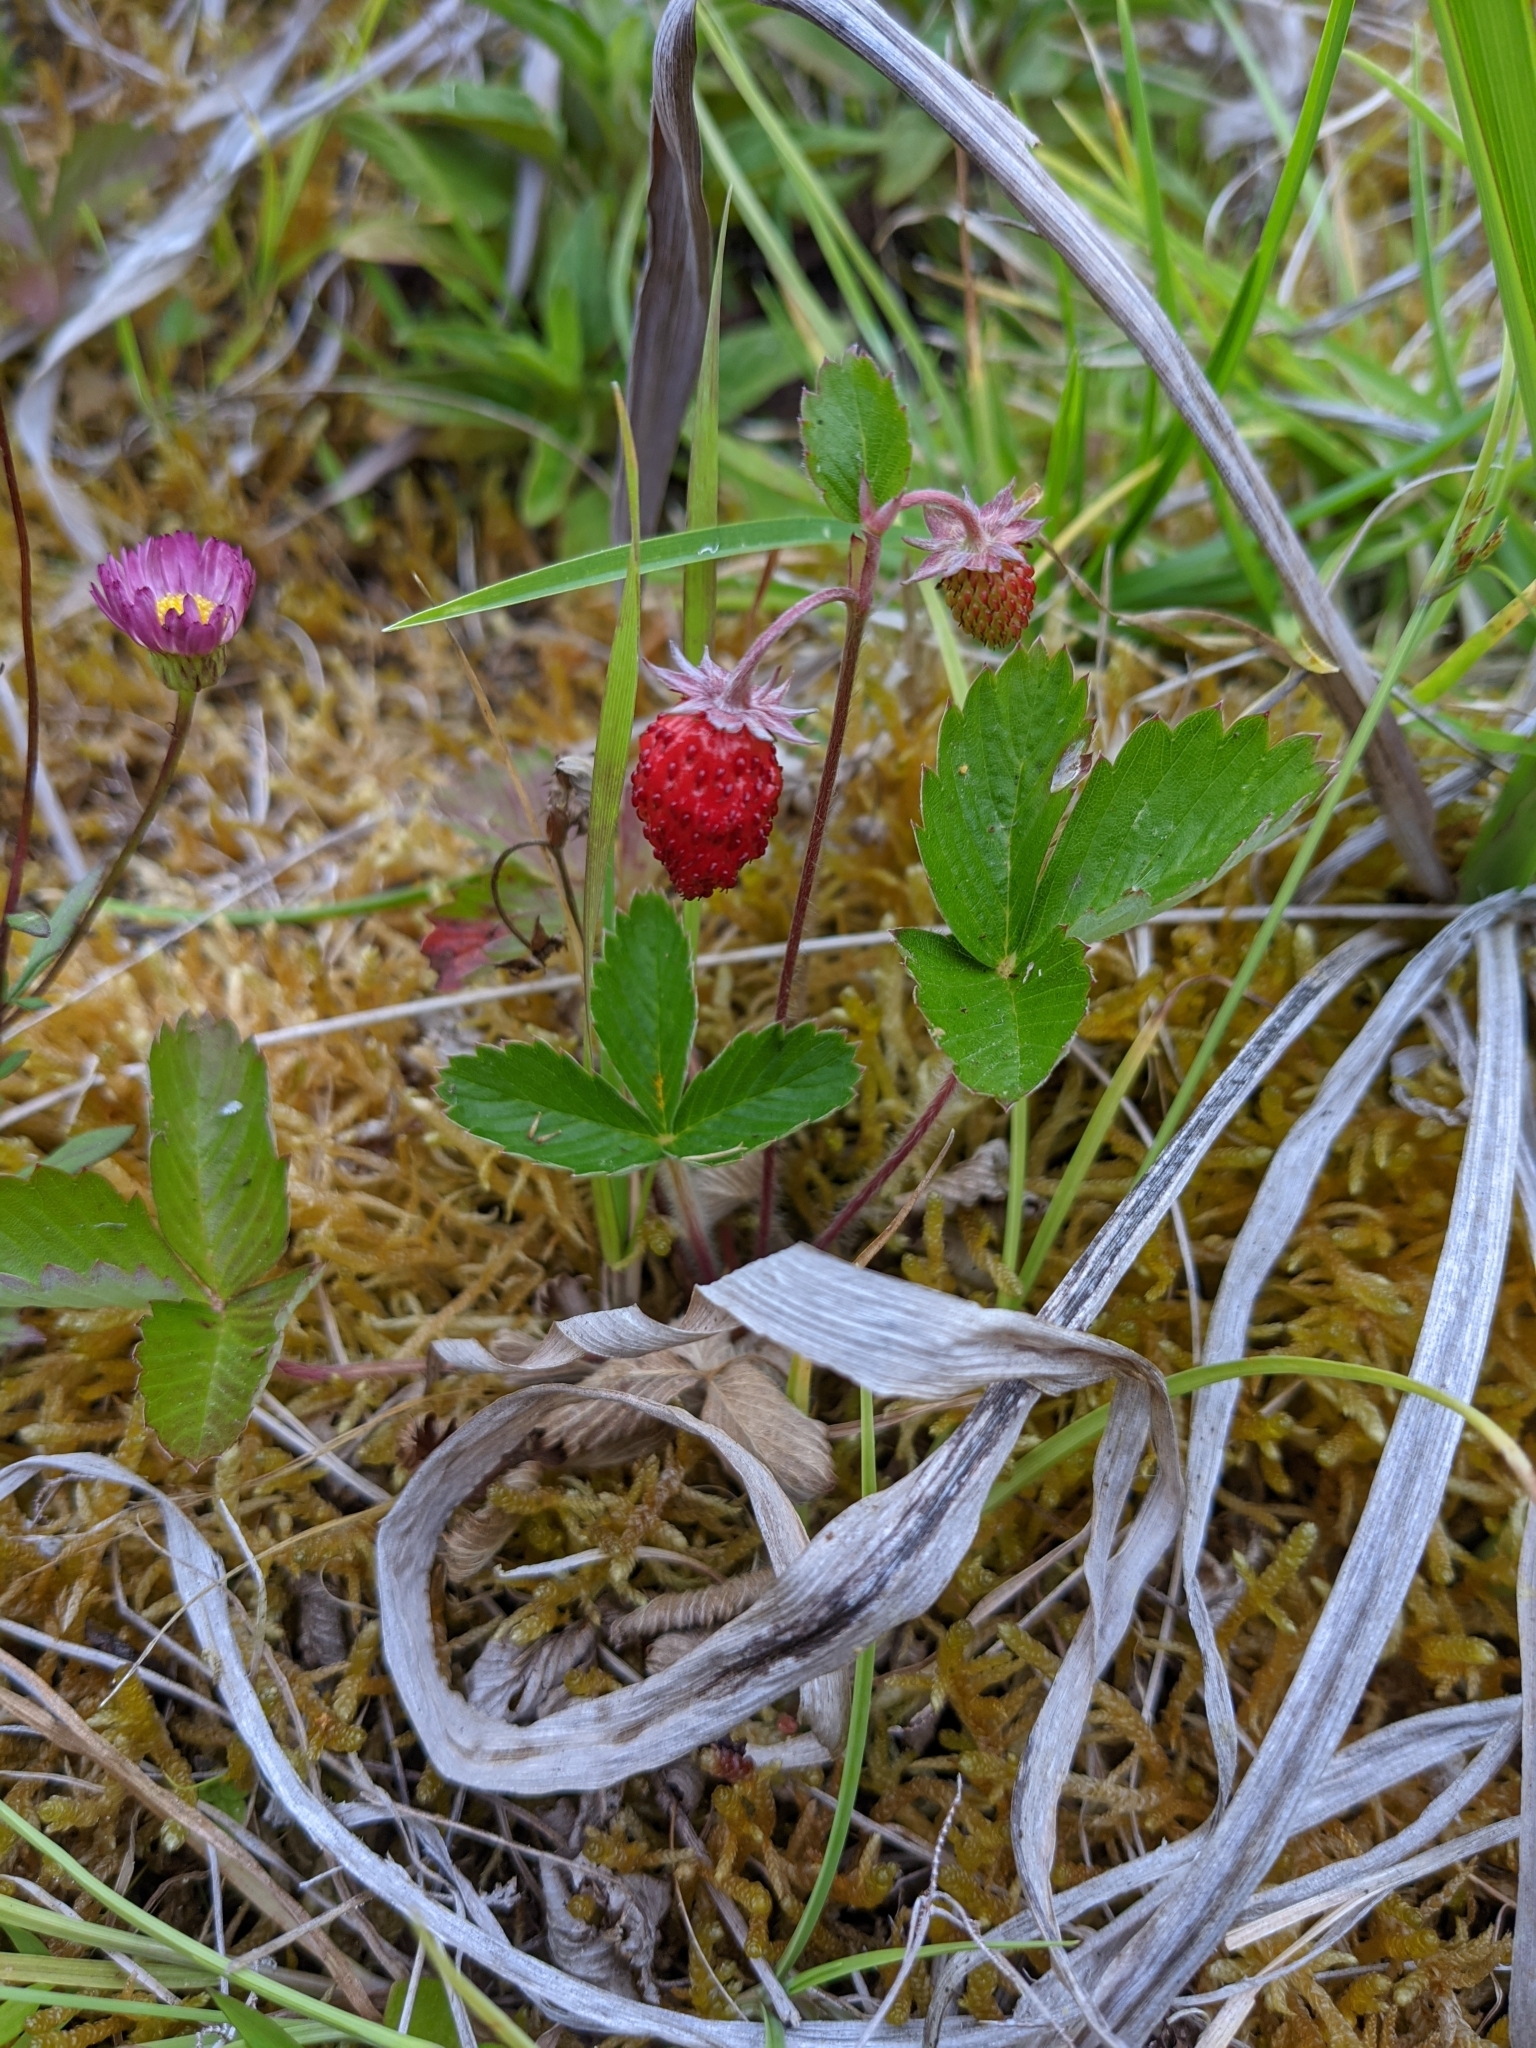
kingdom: Plantae
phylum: Tracheophyta
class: Magnoliopsida
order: Rosales
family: Rosaceae
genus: Fragaria
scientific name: Fragaria vesca
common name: Wild strawberry
